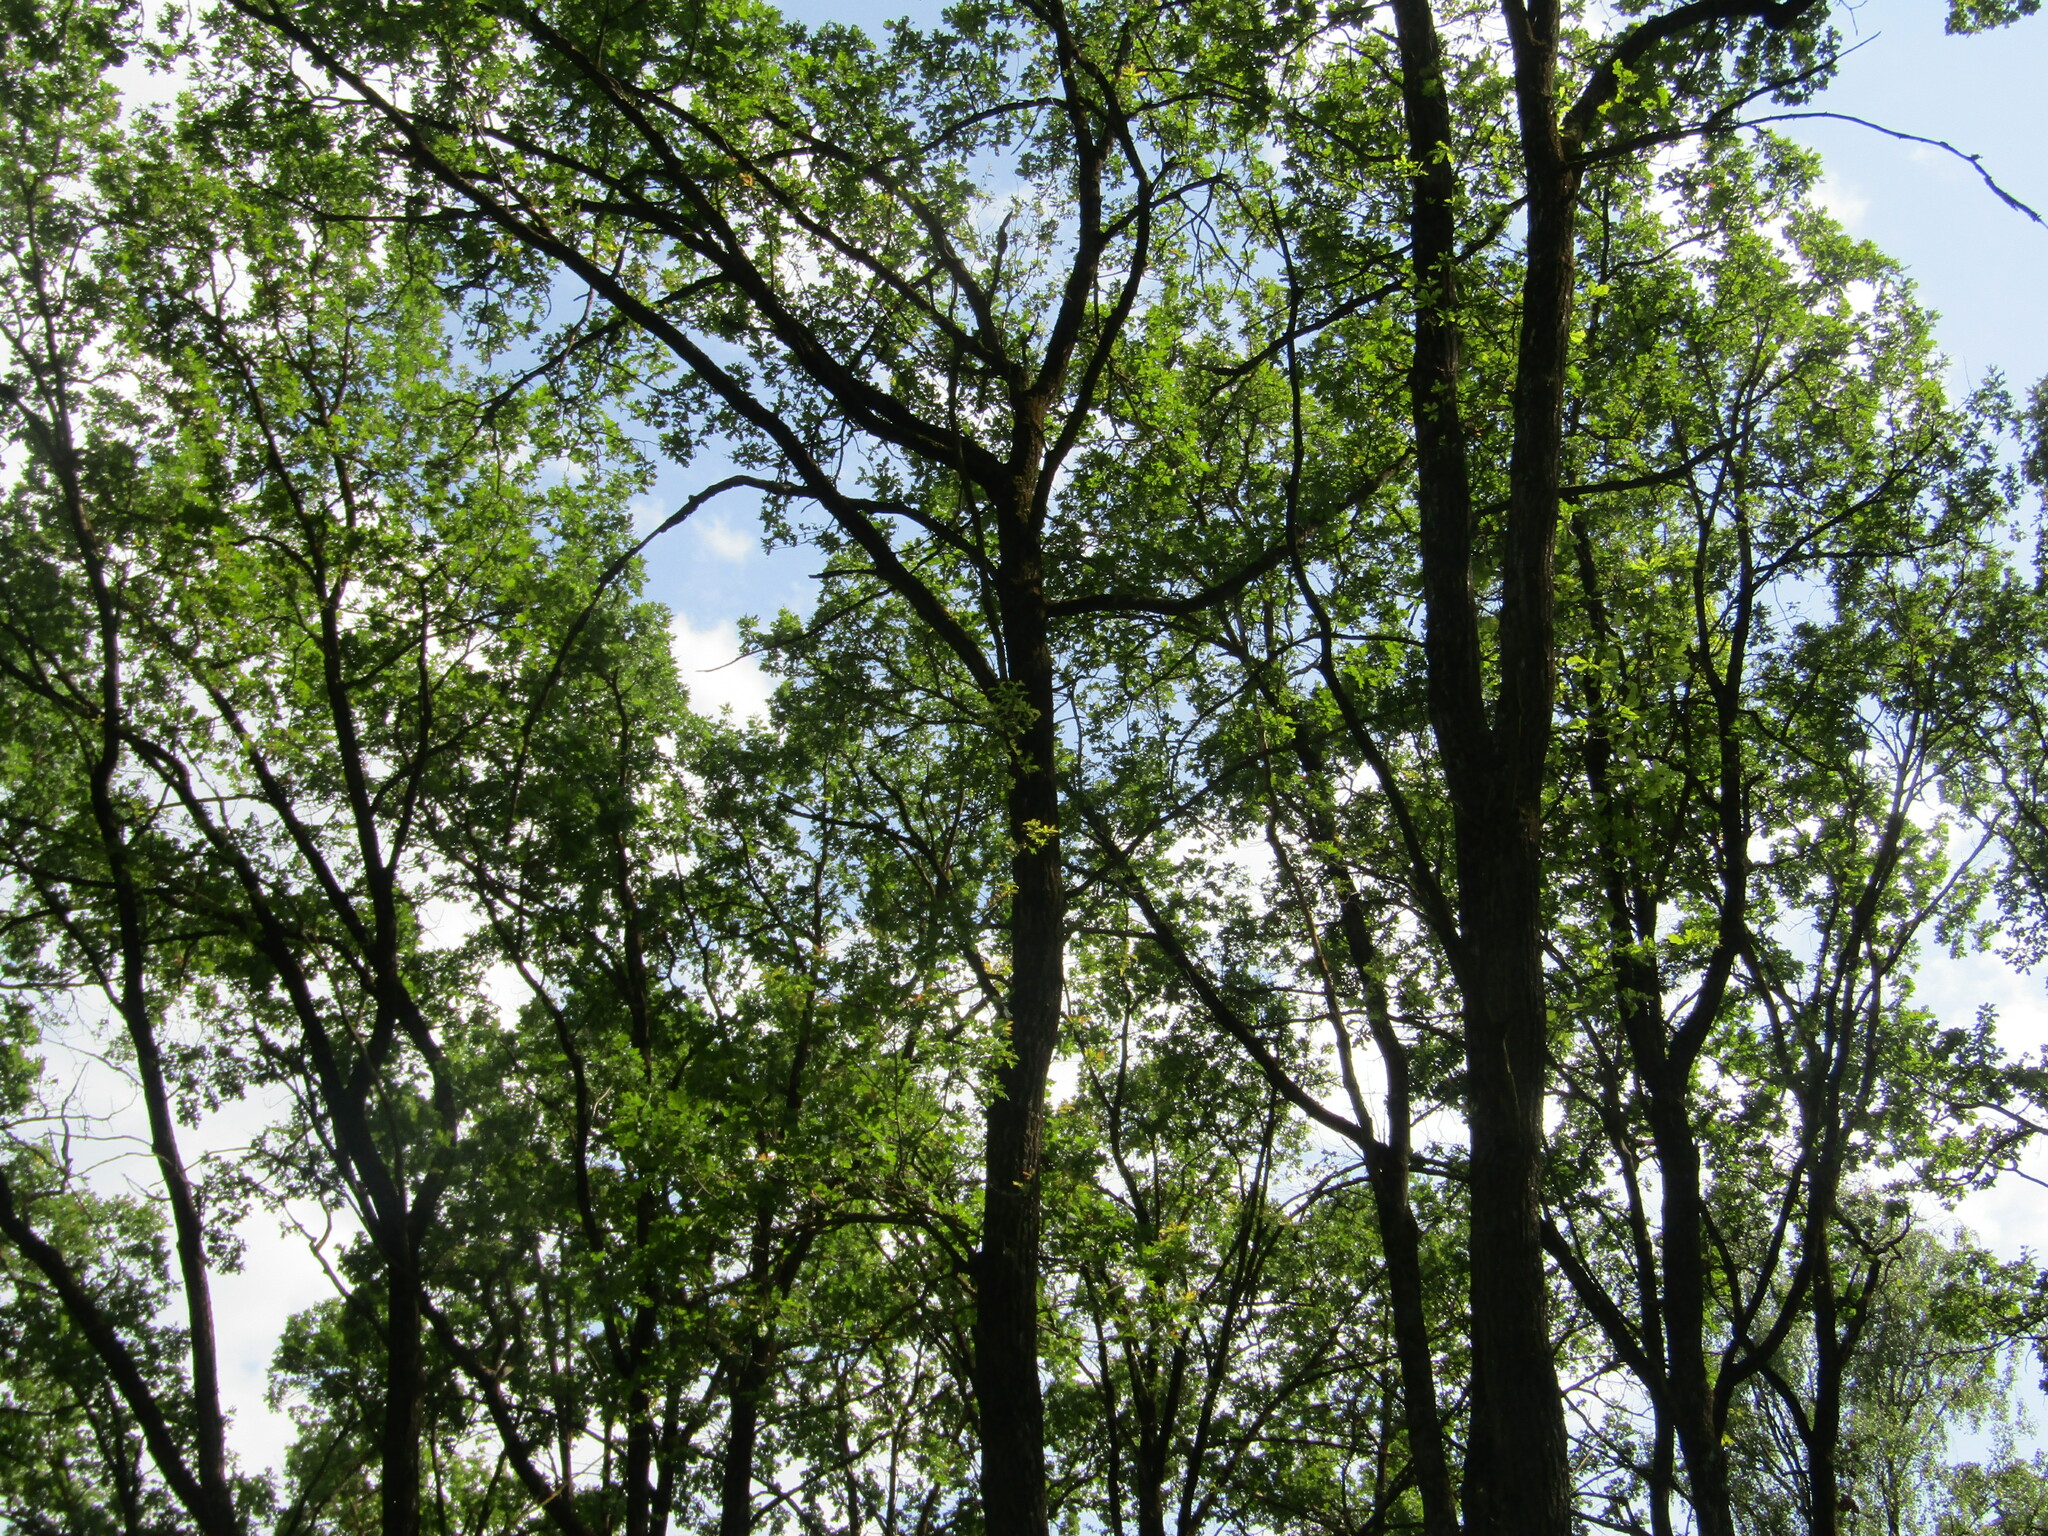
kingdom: Plantae
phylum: Tracheophyta
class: Magnoliopsida
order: Fagales
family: Fagaceae
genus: Quercus
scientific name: Quercus robur
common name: Pedunculate oak
